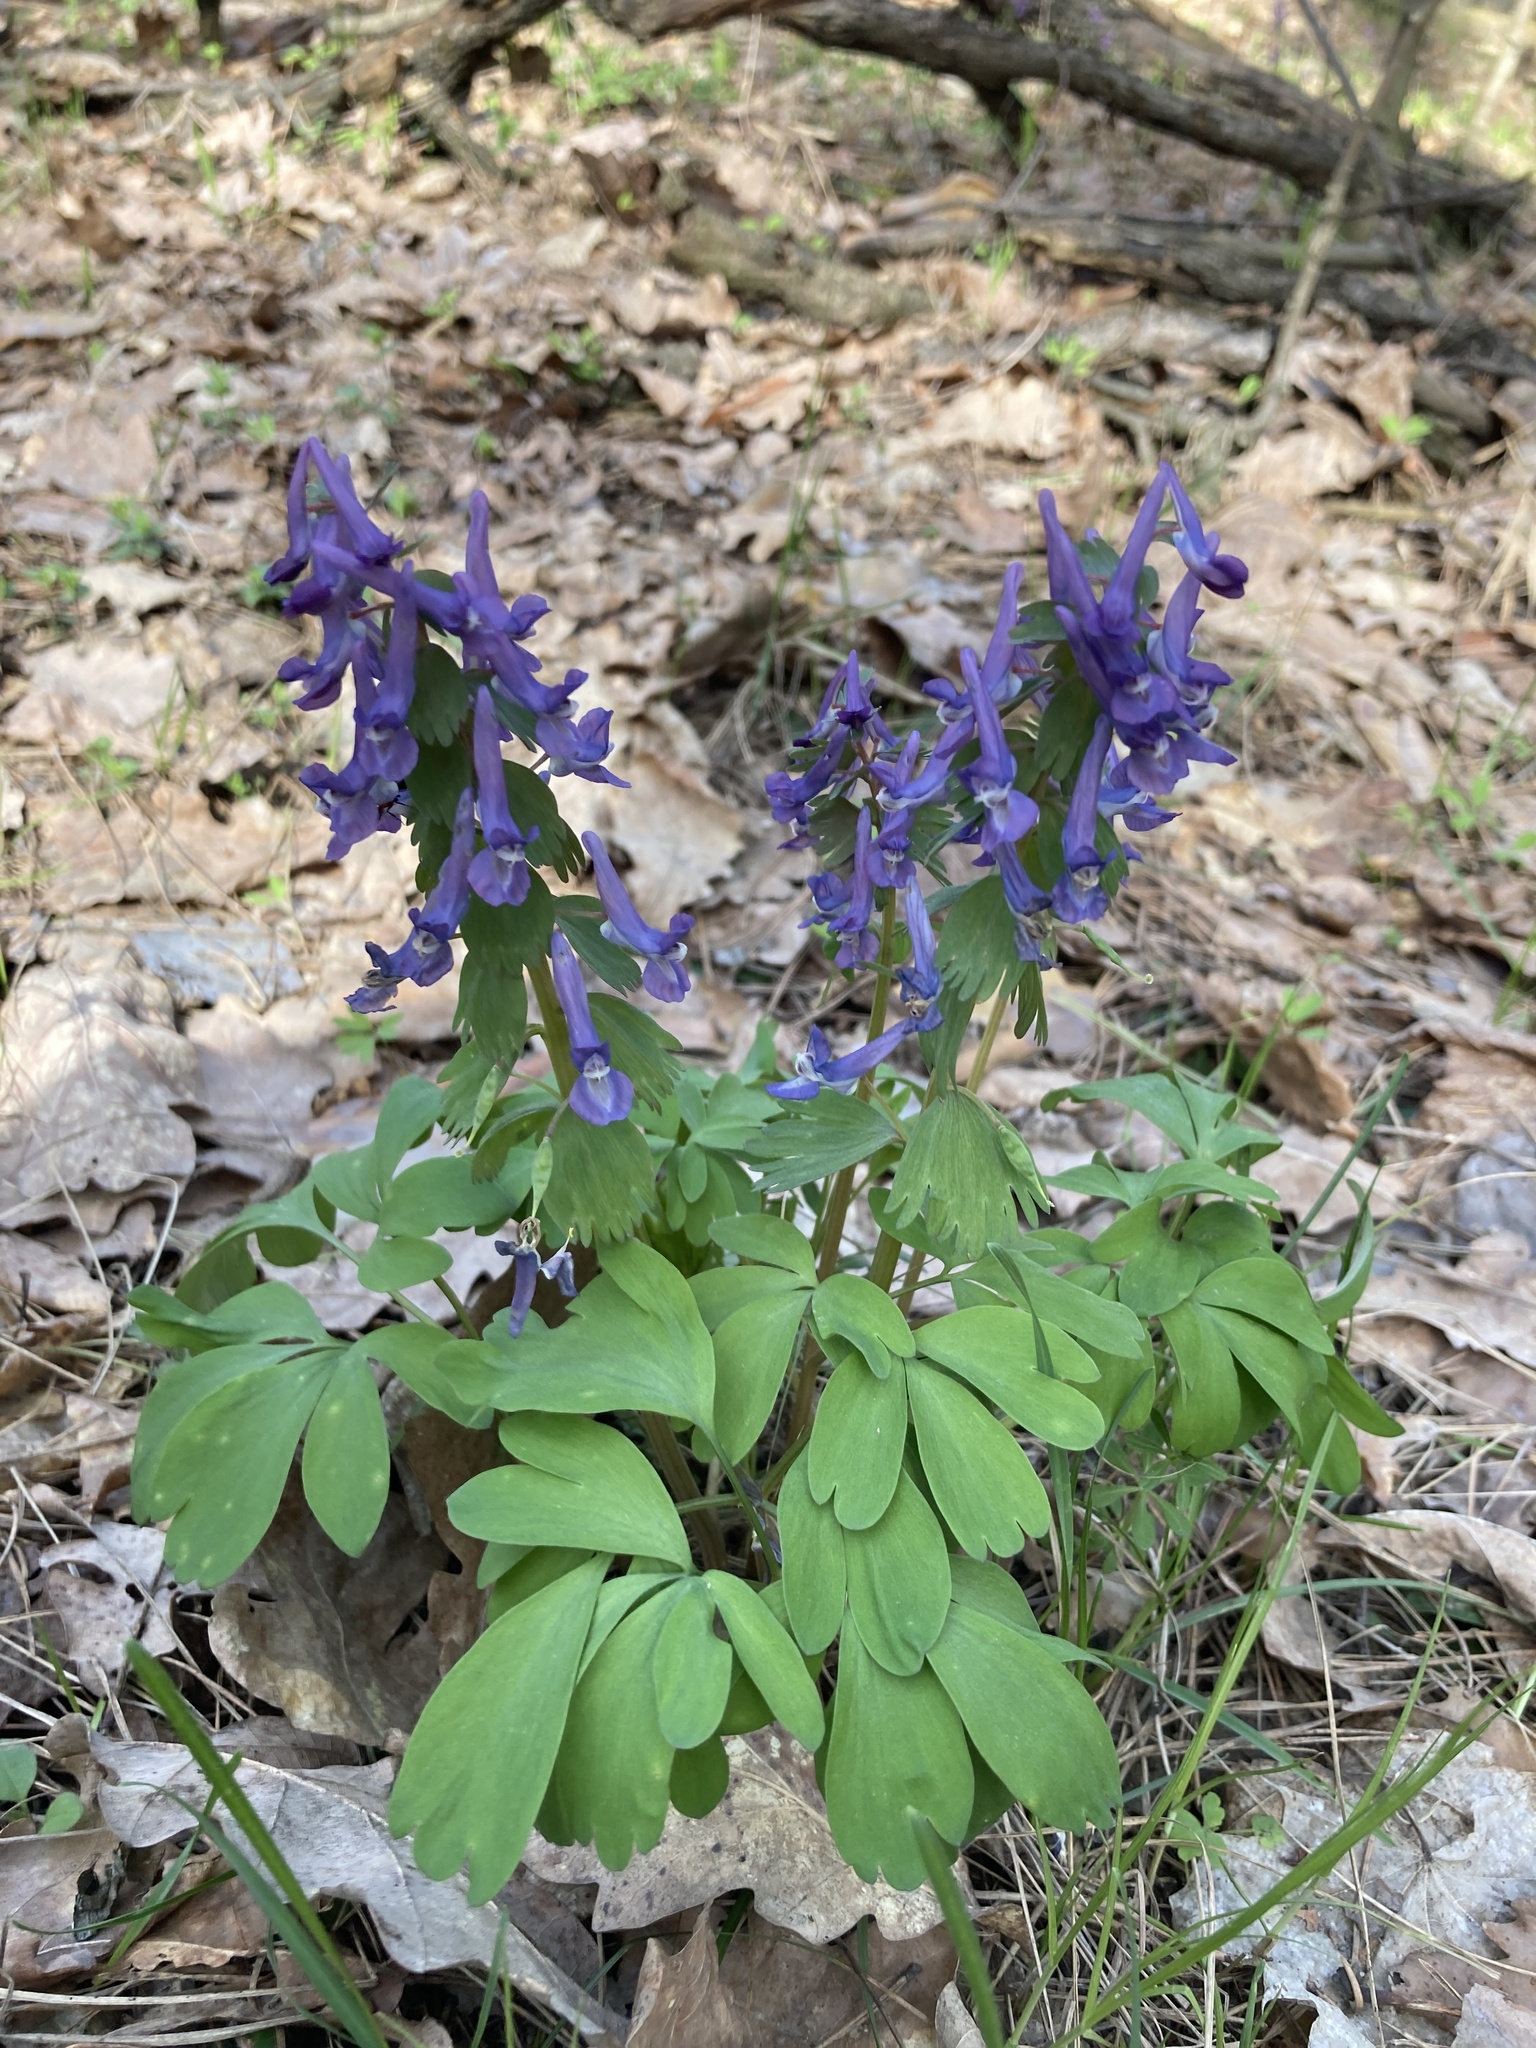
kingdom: Plantae
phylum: Tracheophyta
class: Magnoliopsida
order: Ranunculales
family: Papaveraceae
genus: Corydalis
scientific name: Corydalis solida
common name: Bird-in-a-bush
